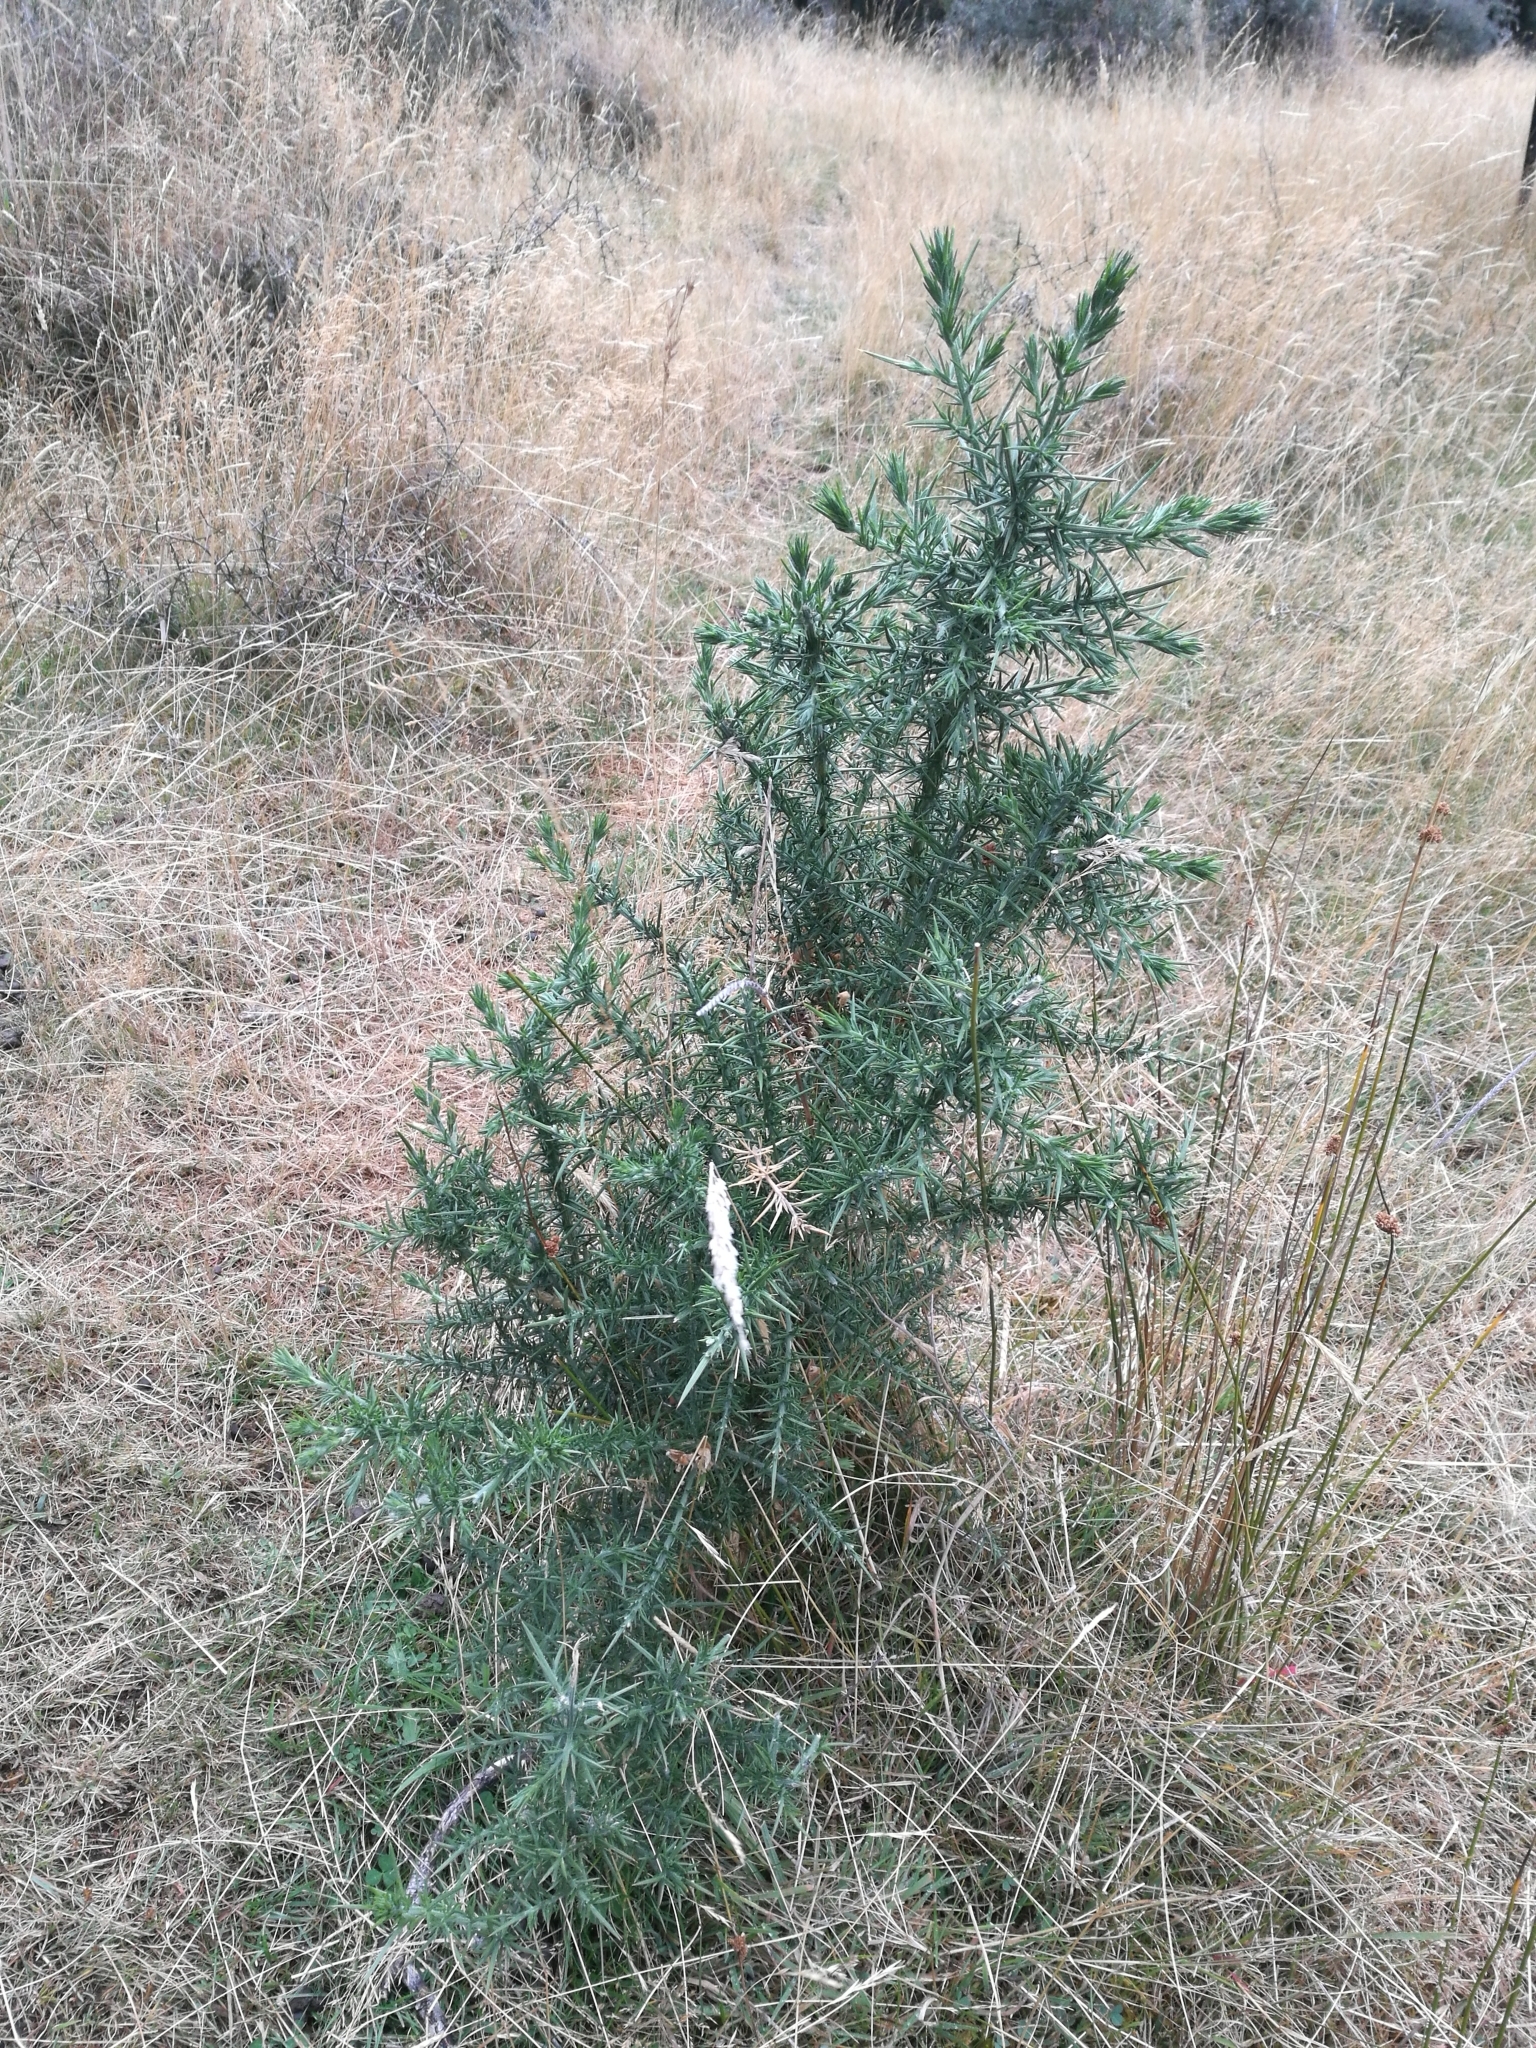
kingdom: Plantae
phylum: Tracheophyta
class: Magnoliopsida
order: Fabales
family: Fabaceae
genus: Ulex
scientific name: Ulex europaeus
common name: Common gorse
